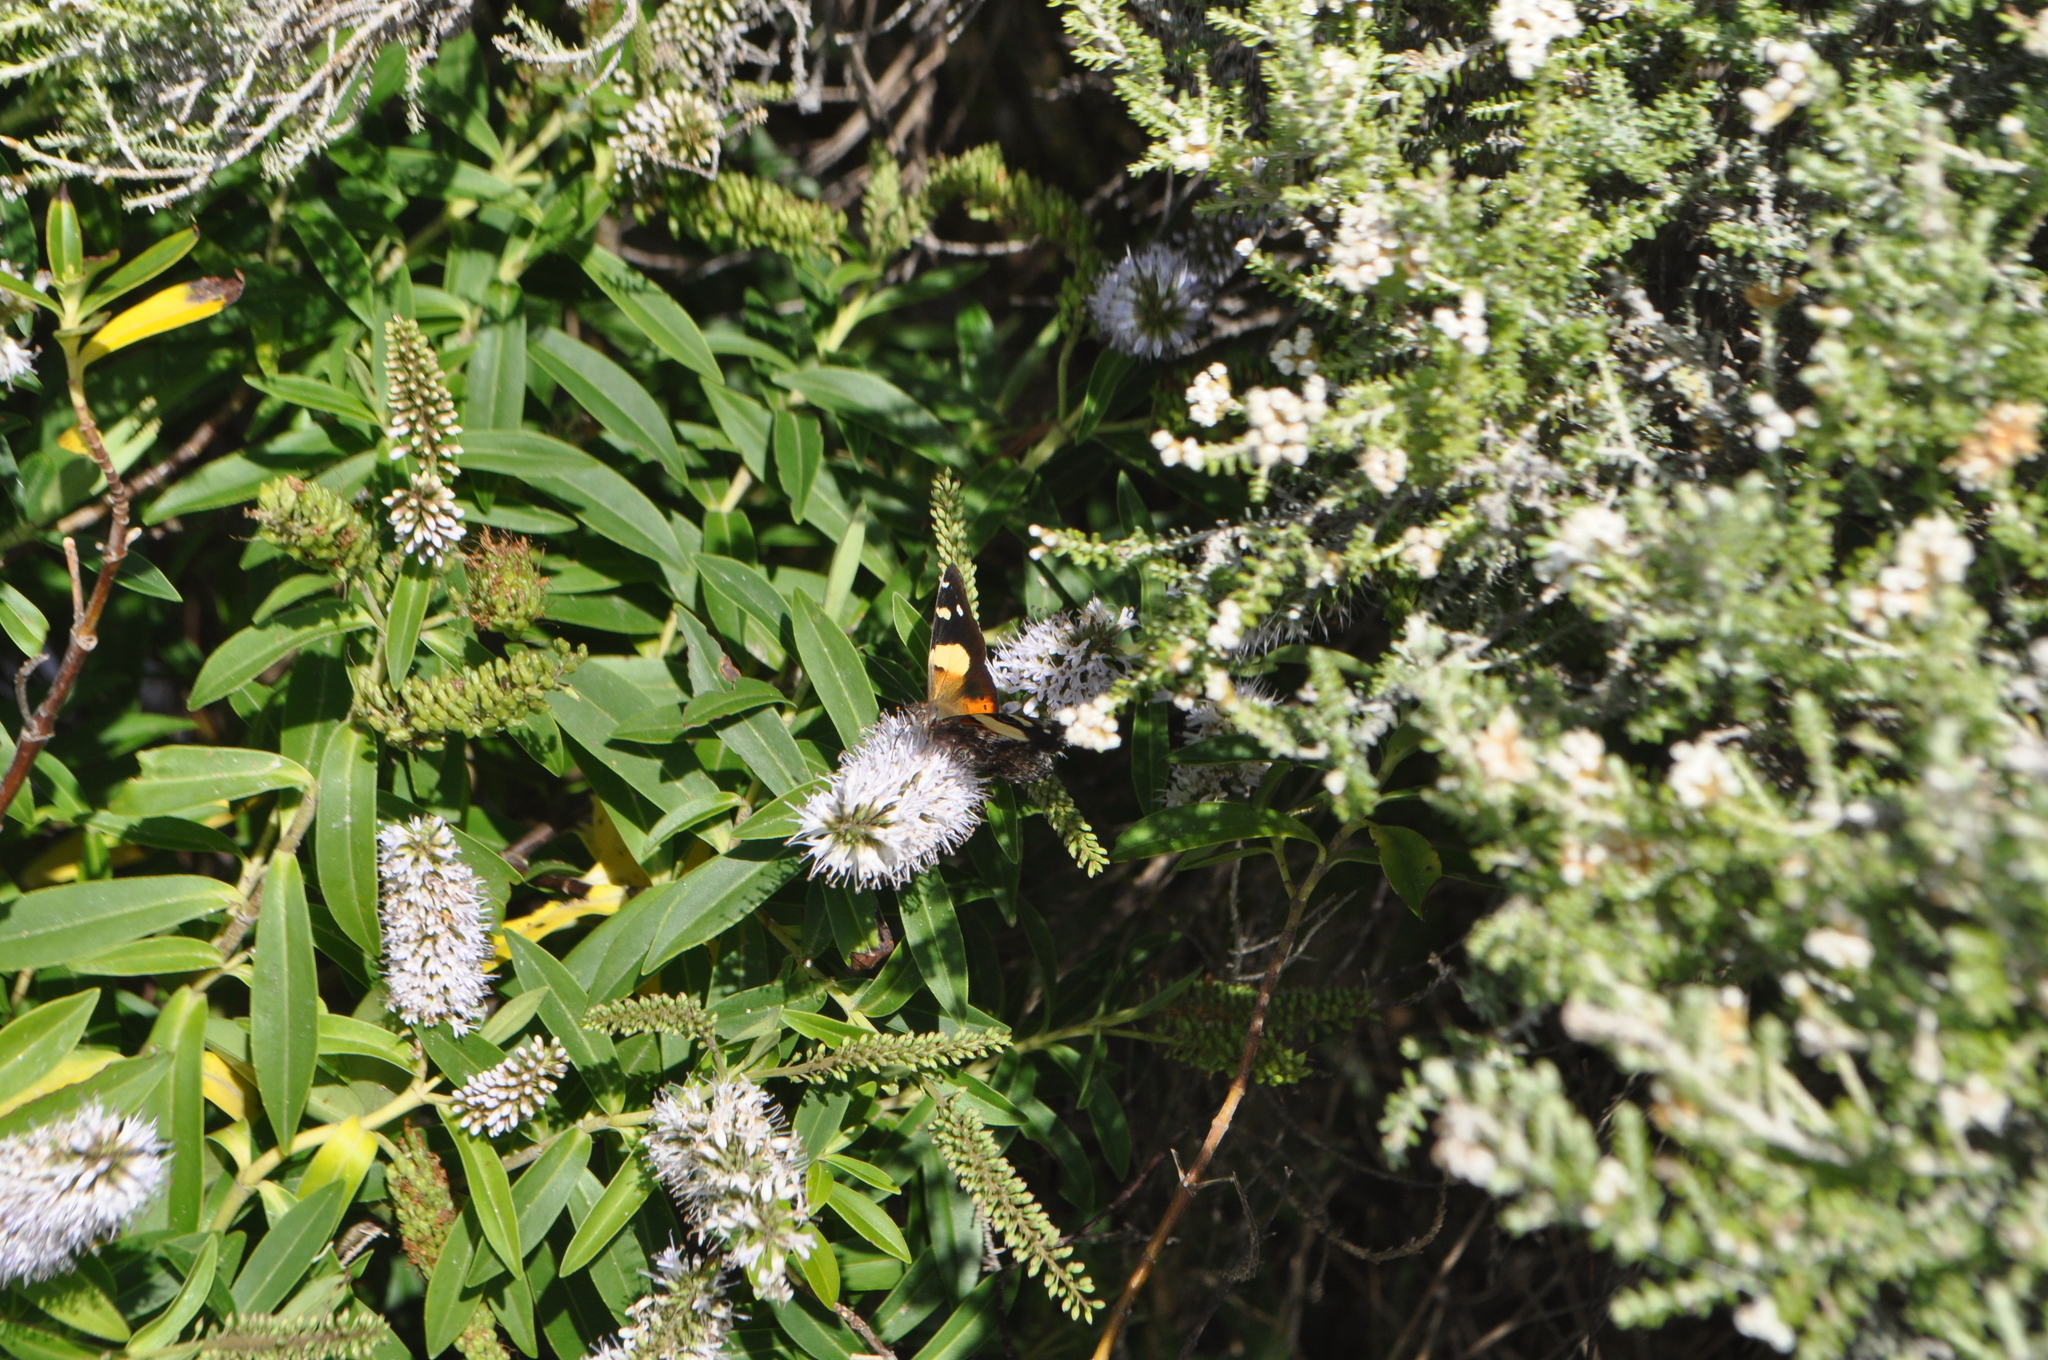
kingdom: Animalia
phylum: Arthropoda
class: Insecta
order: Lepidoptera
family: Nymphalidae
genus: Vanessa
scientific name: Vanessa itea
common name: Yellow admiral
